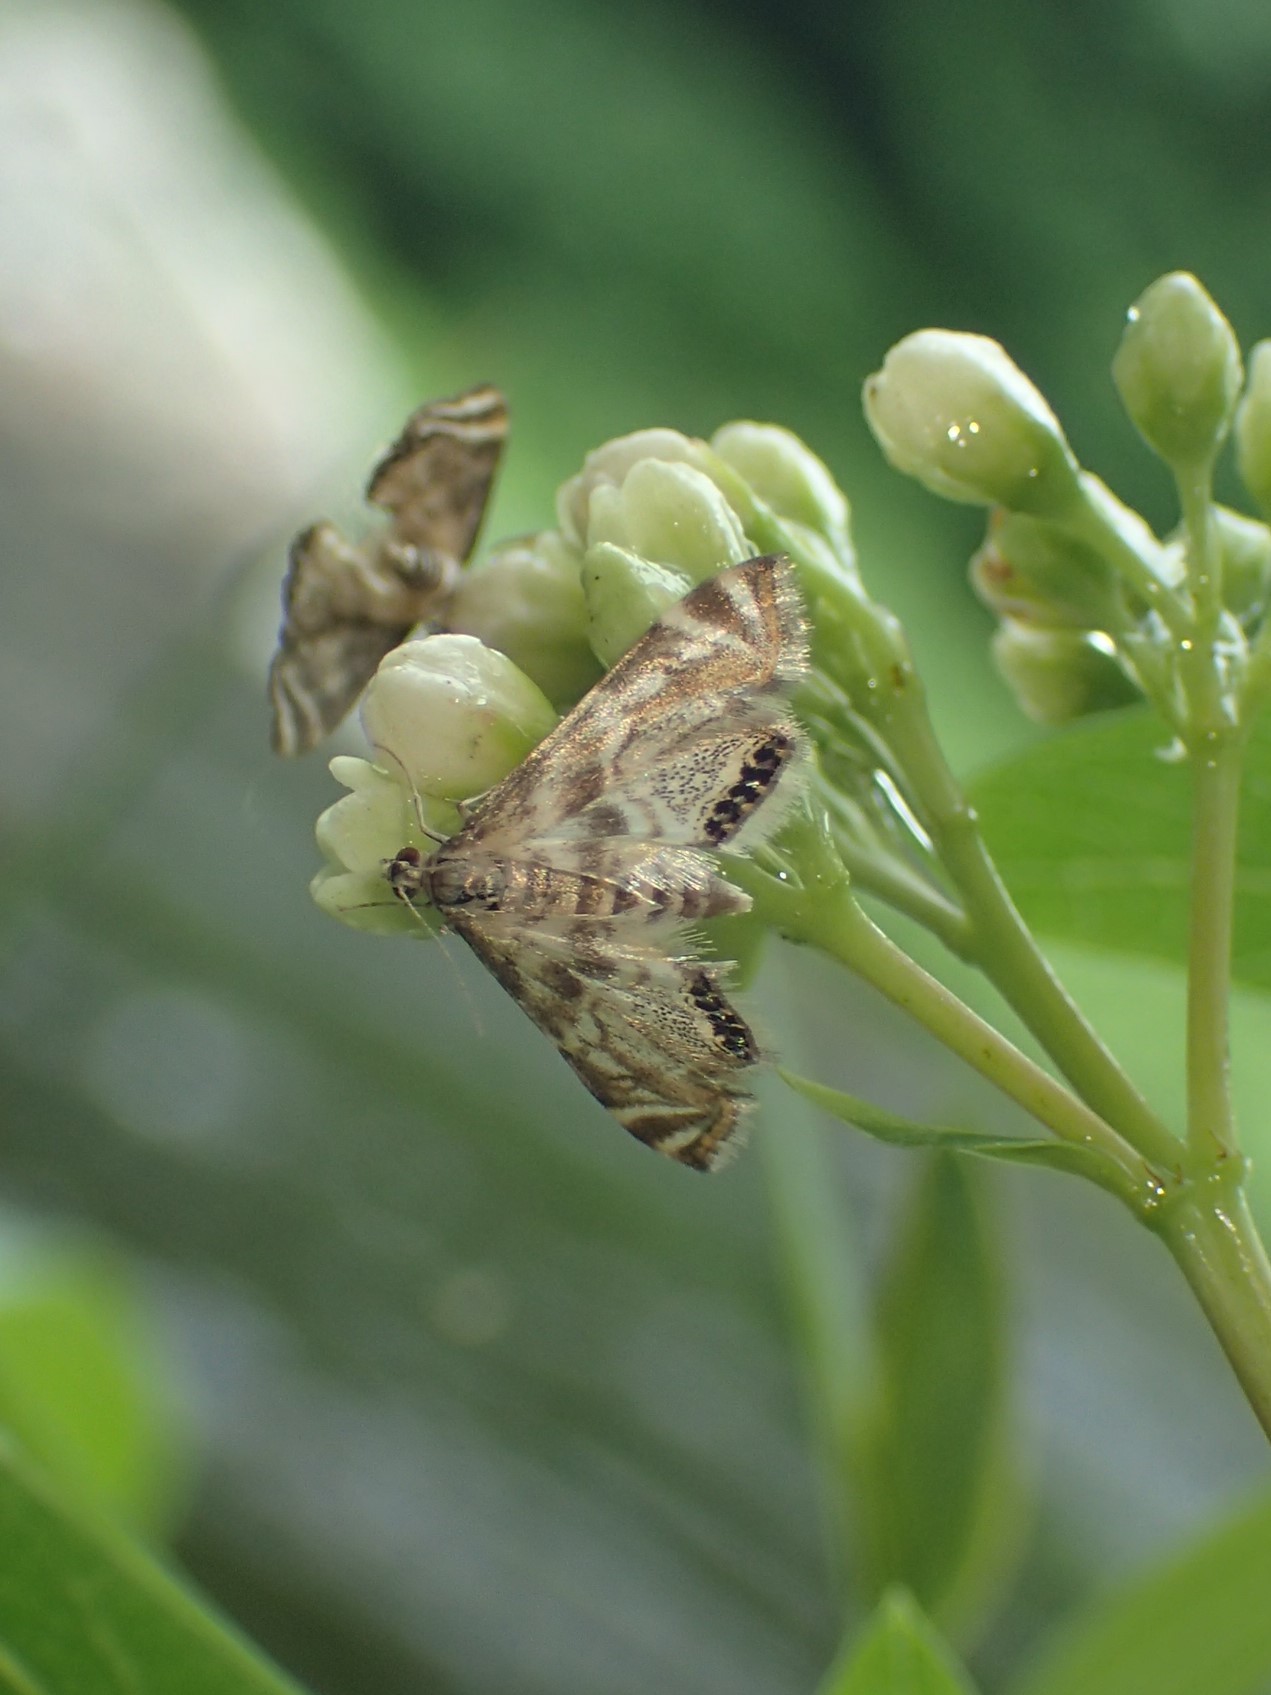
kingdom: Animalia
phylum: Arthropoda
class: Insecta
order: Lepidoptera
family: Crambidae
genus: Petrophila
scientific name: Petrophila canadensis
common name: Canadian petrophila
